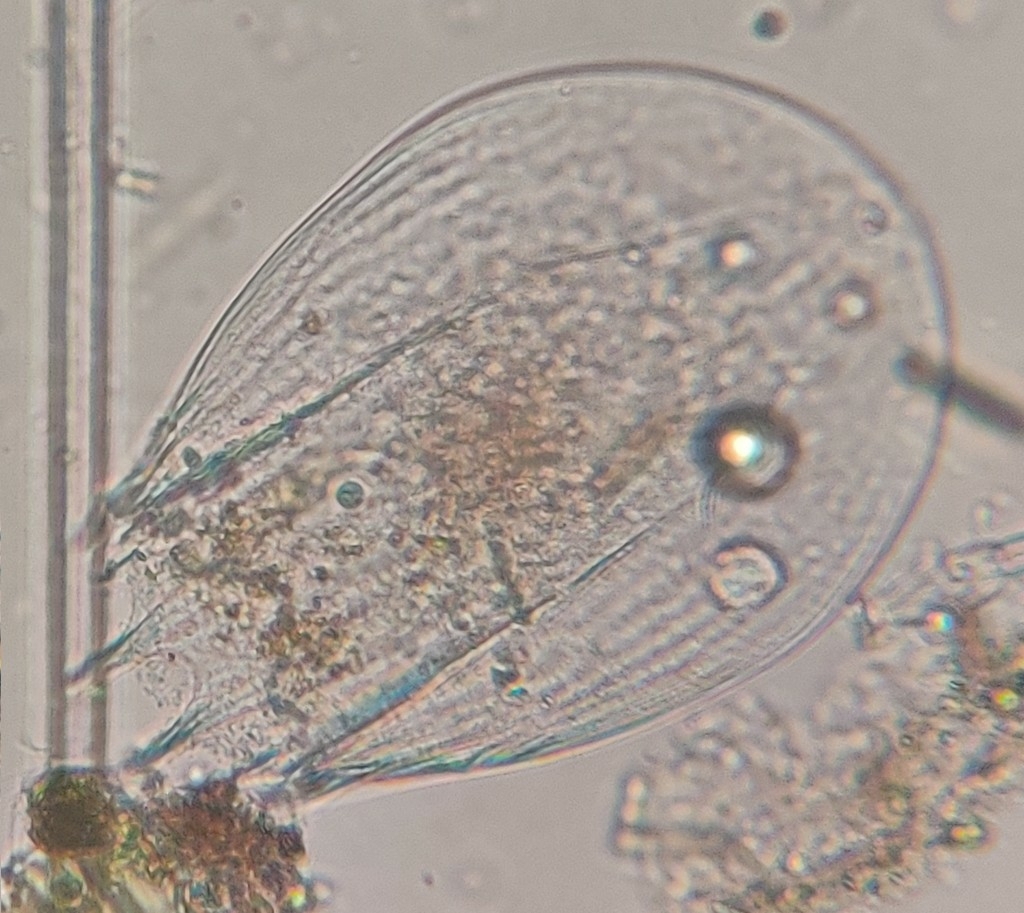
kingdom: Animalia
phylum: Rotifera
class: Eurotatoria
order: Ploima
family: Brachionidae
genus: Notholca
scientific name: Notholca squamula
